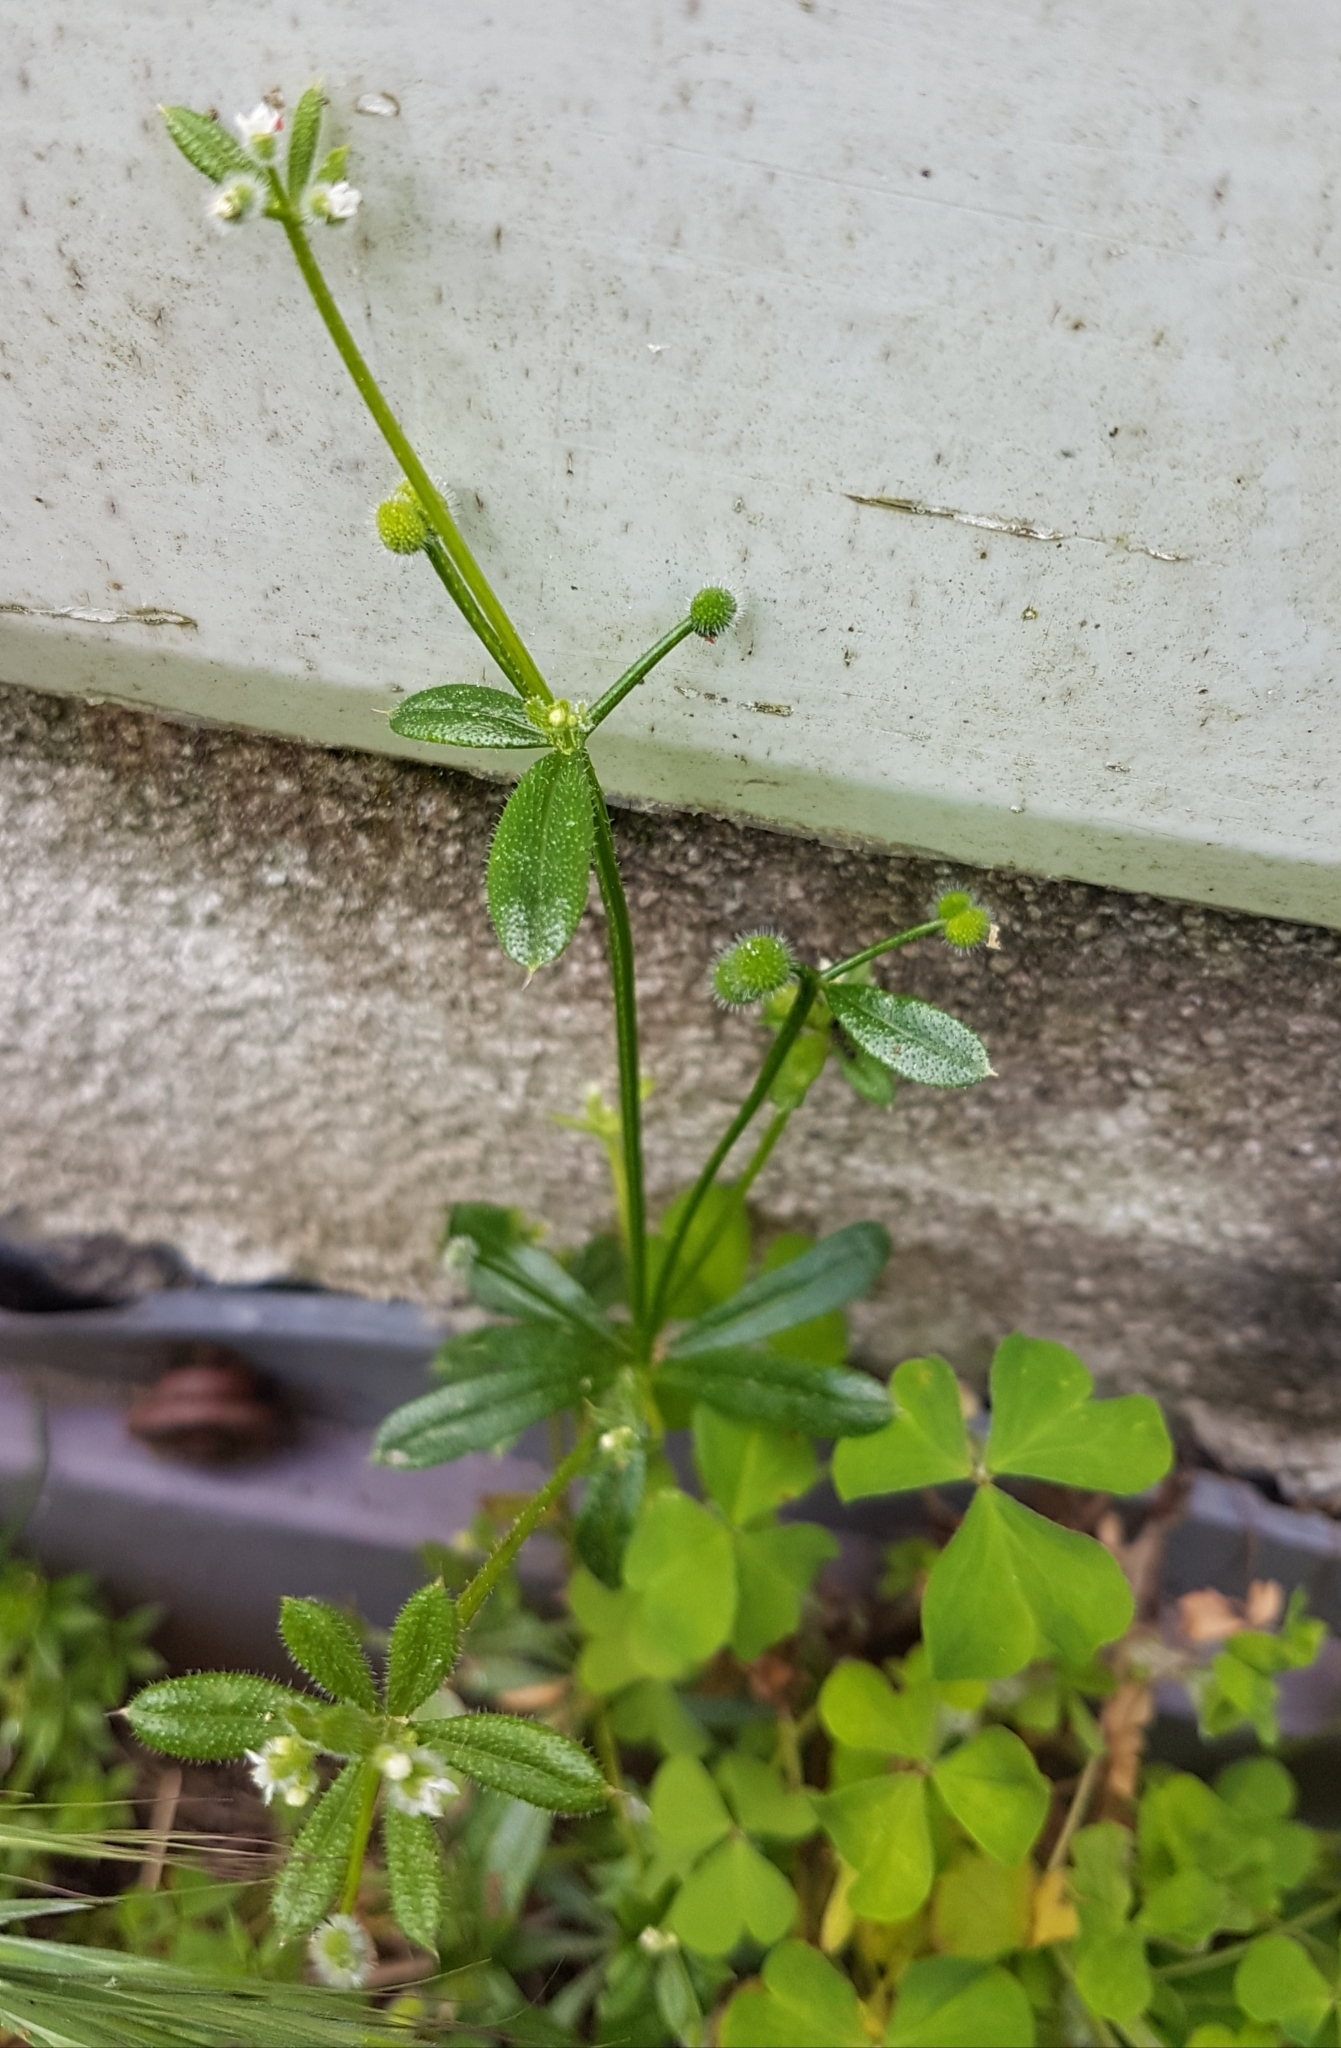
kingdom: Plantae
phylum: Tracheophyta
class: Magnoliopsida
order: Gentianales
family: Rubiaceae
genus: Galium
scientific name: Galium aparine
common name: Cleavers
